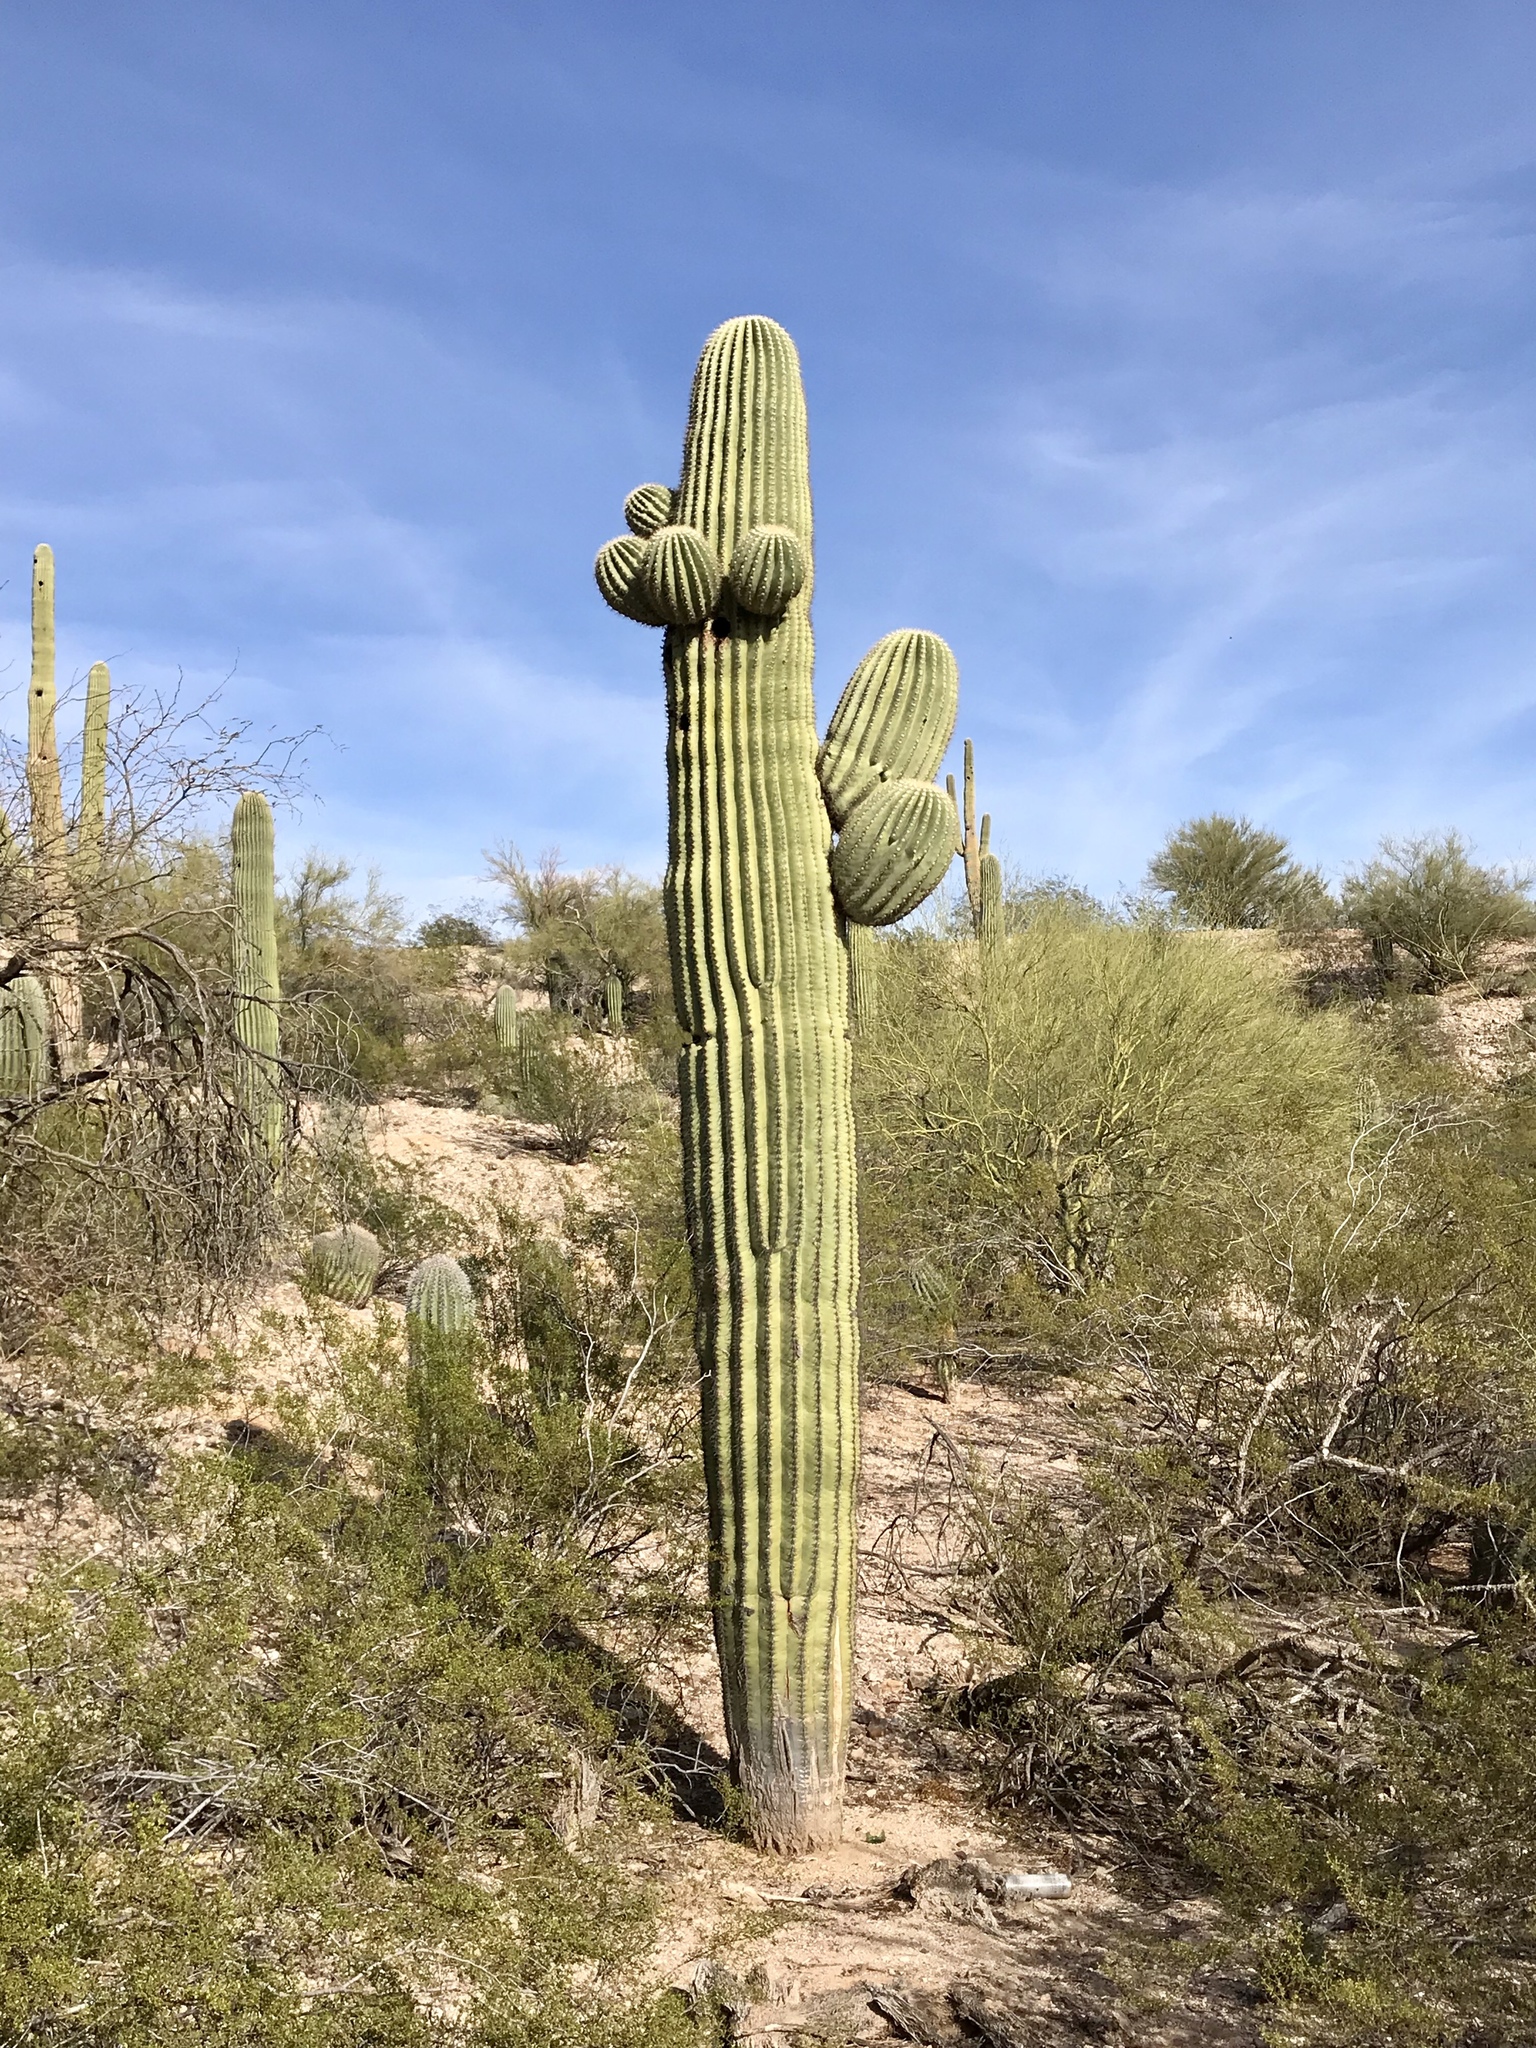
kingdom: Plantae
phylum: Tracheophyta
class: Magnoliopsida
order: Caryophyllales
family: Cactaceae
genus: Carnegiea
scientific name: Carnegiea gigantea
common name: Saguaro
